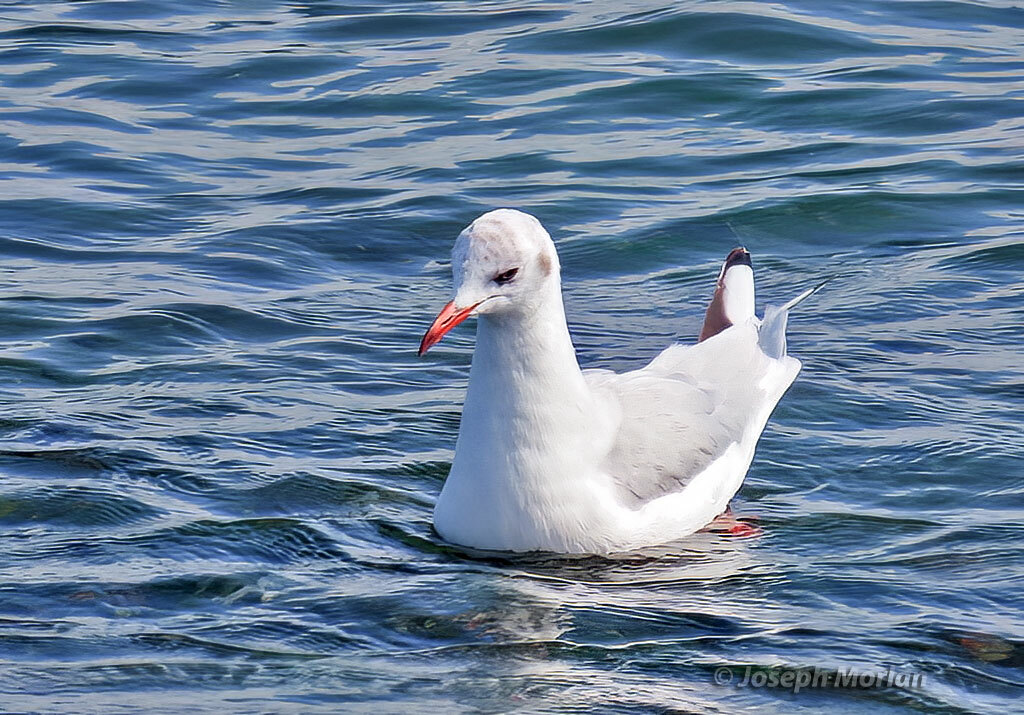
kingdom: Animalia
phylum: Chordata
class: Aves
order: Charadriiformes
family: Laridae
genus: Chroicocephalus
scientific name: Chroicocephalus maculipennis
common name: Brown-hooded gull
